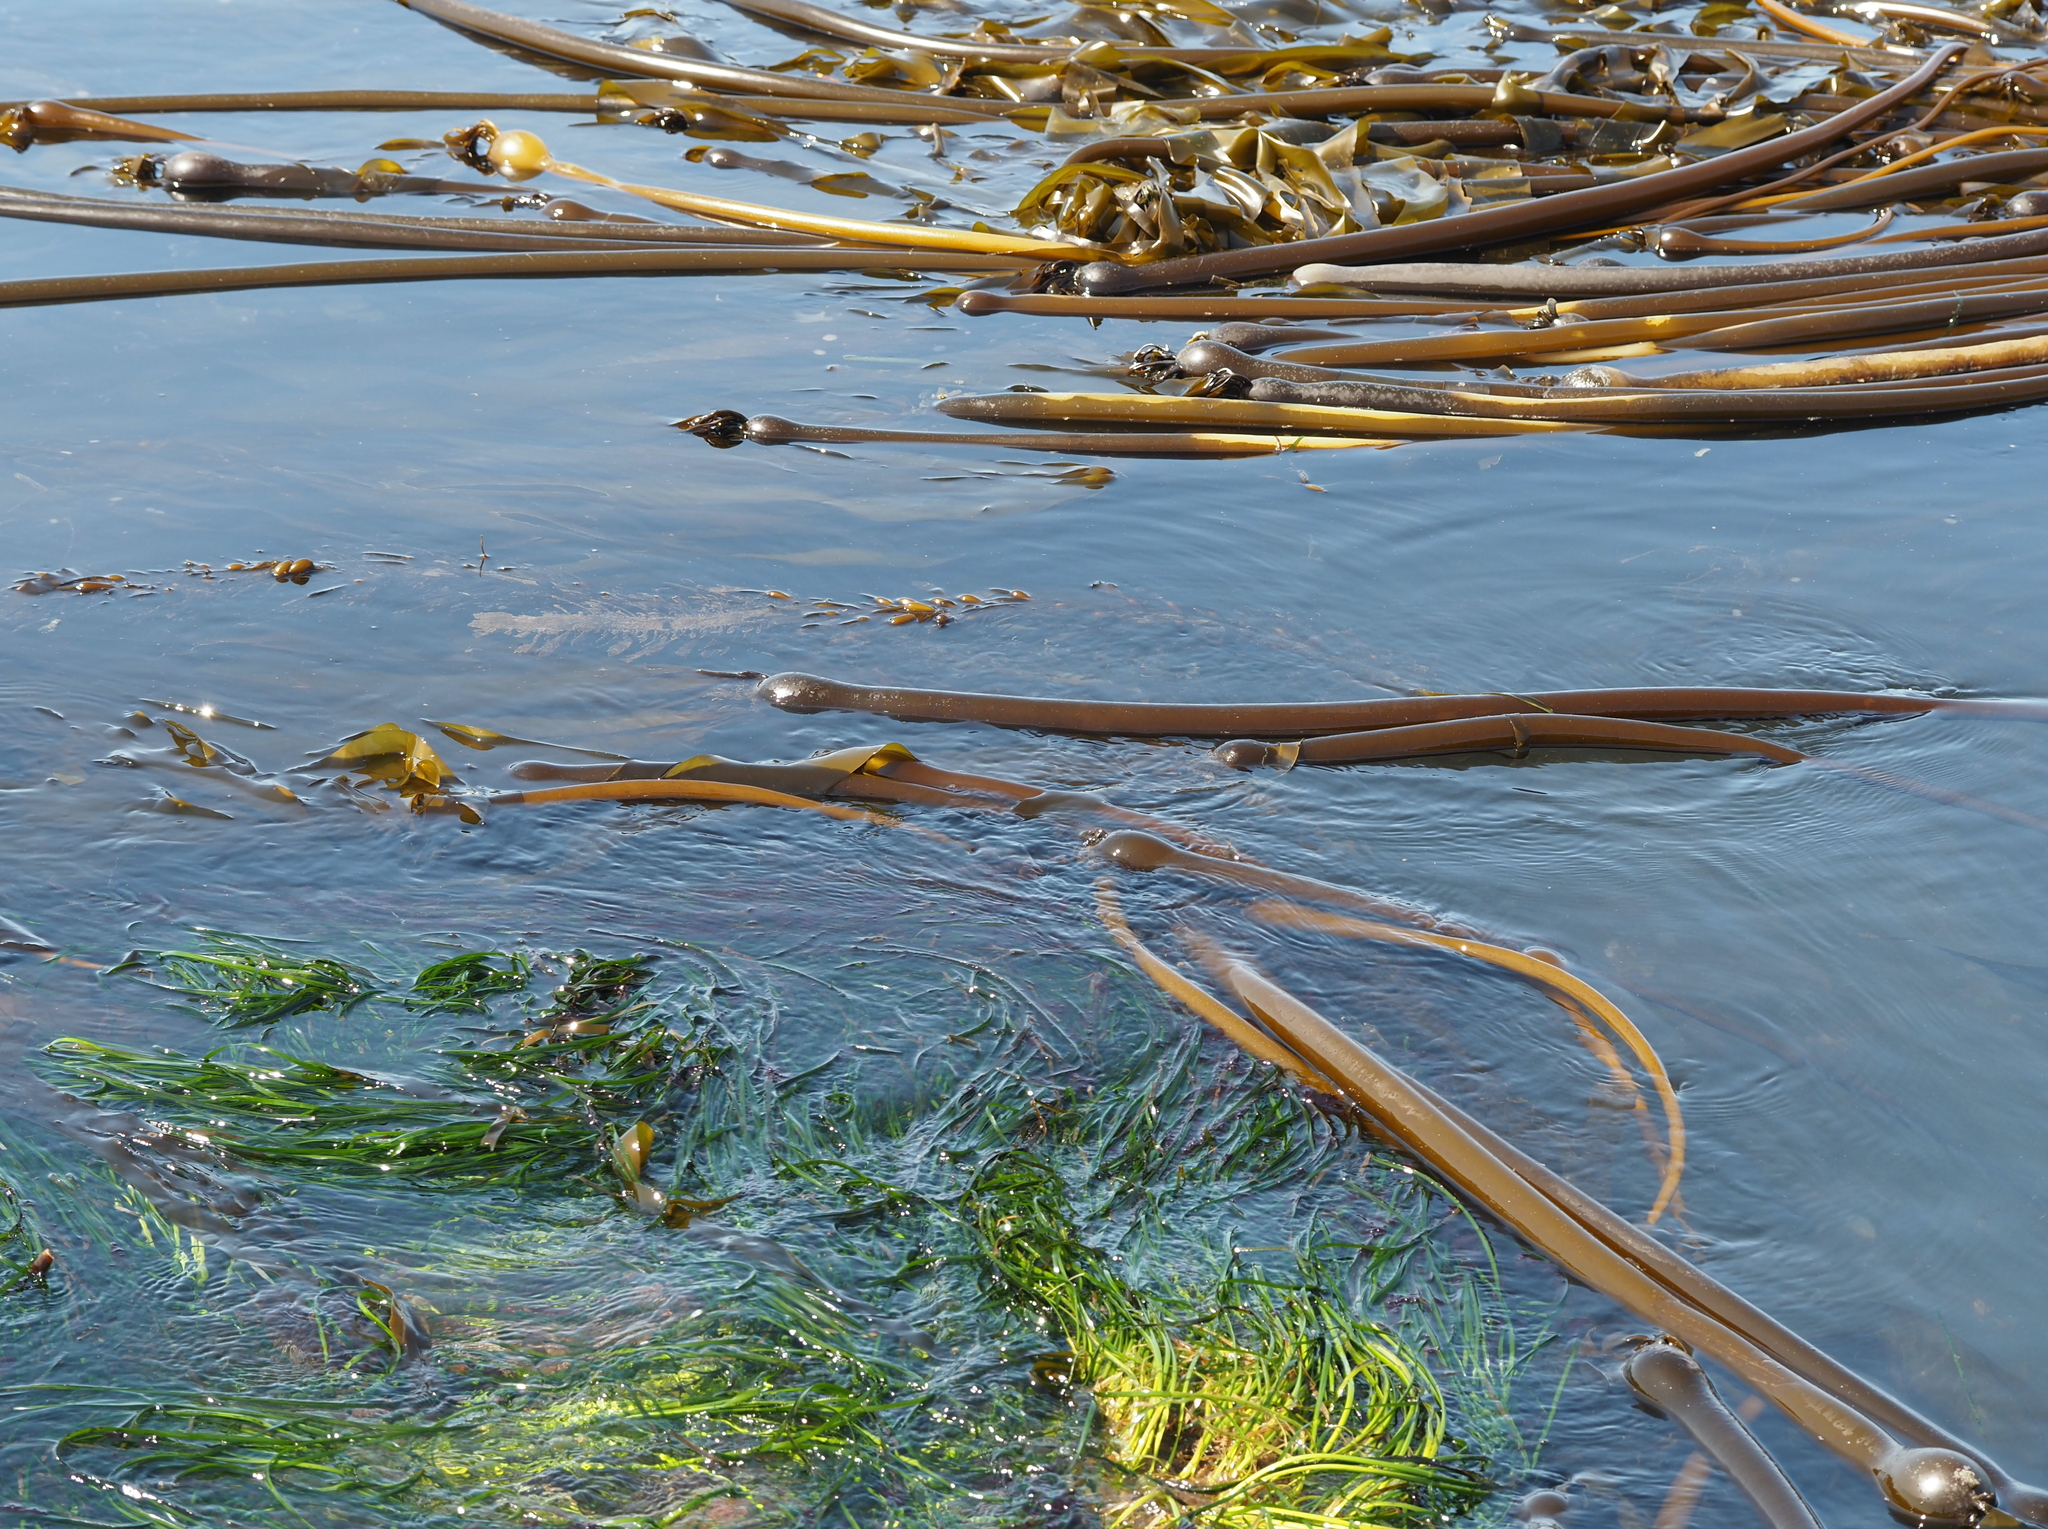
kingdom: Chromista
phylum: Ochrophyta
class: Phaeophyceae
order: Laminariales
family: Laminariaceae
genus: Nereocystis
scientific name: Nereocystis luetkeana
